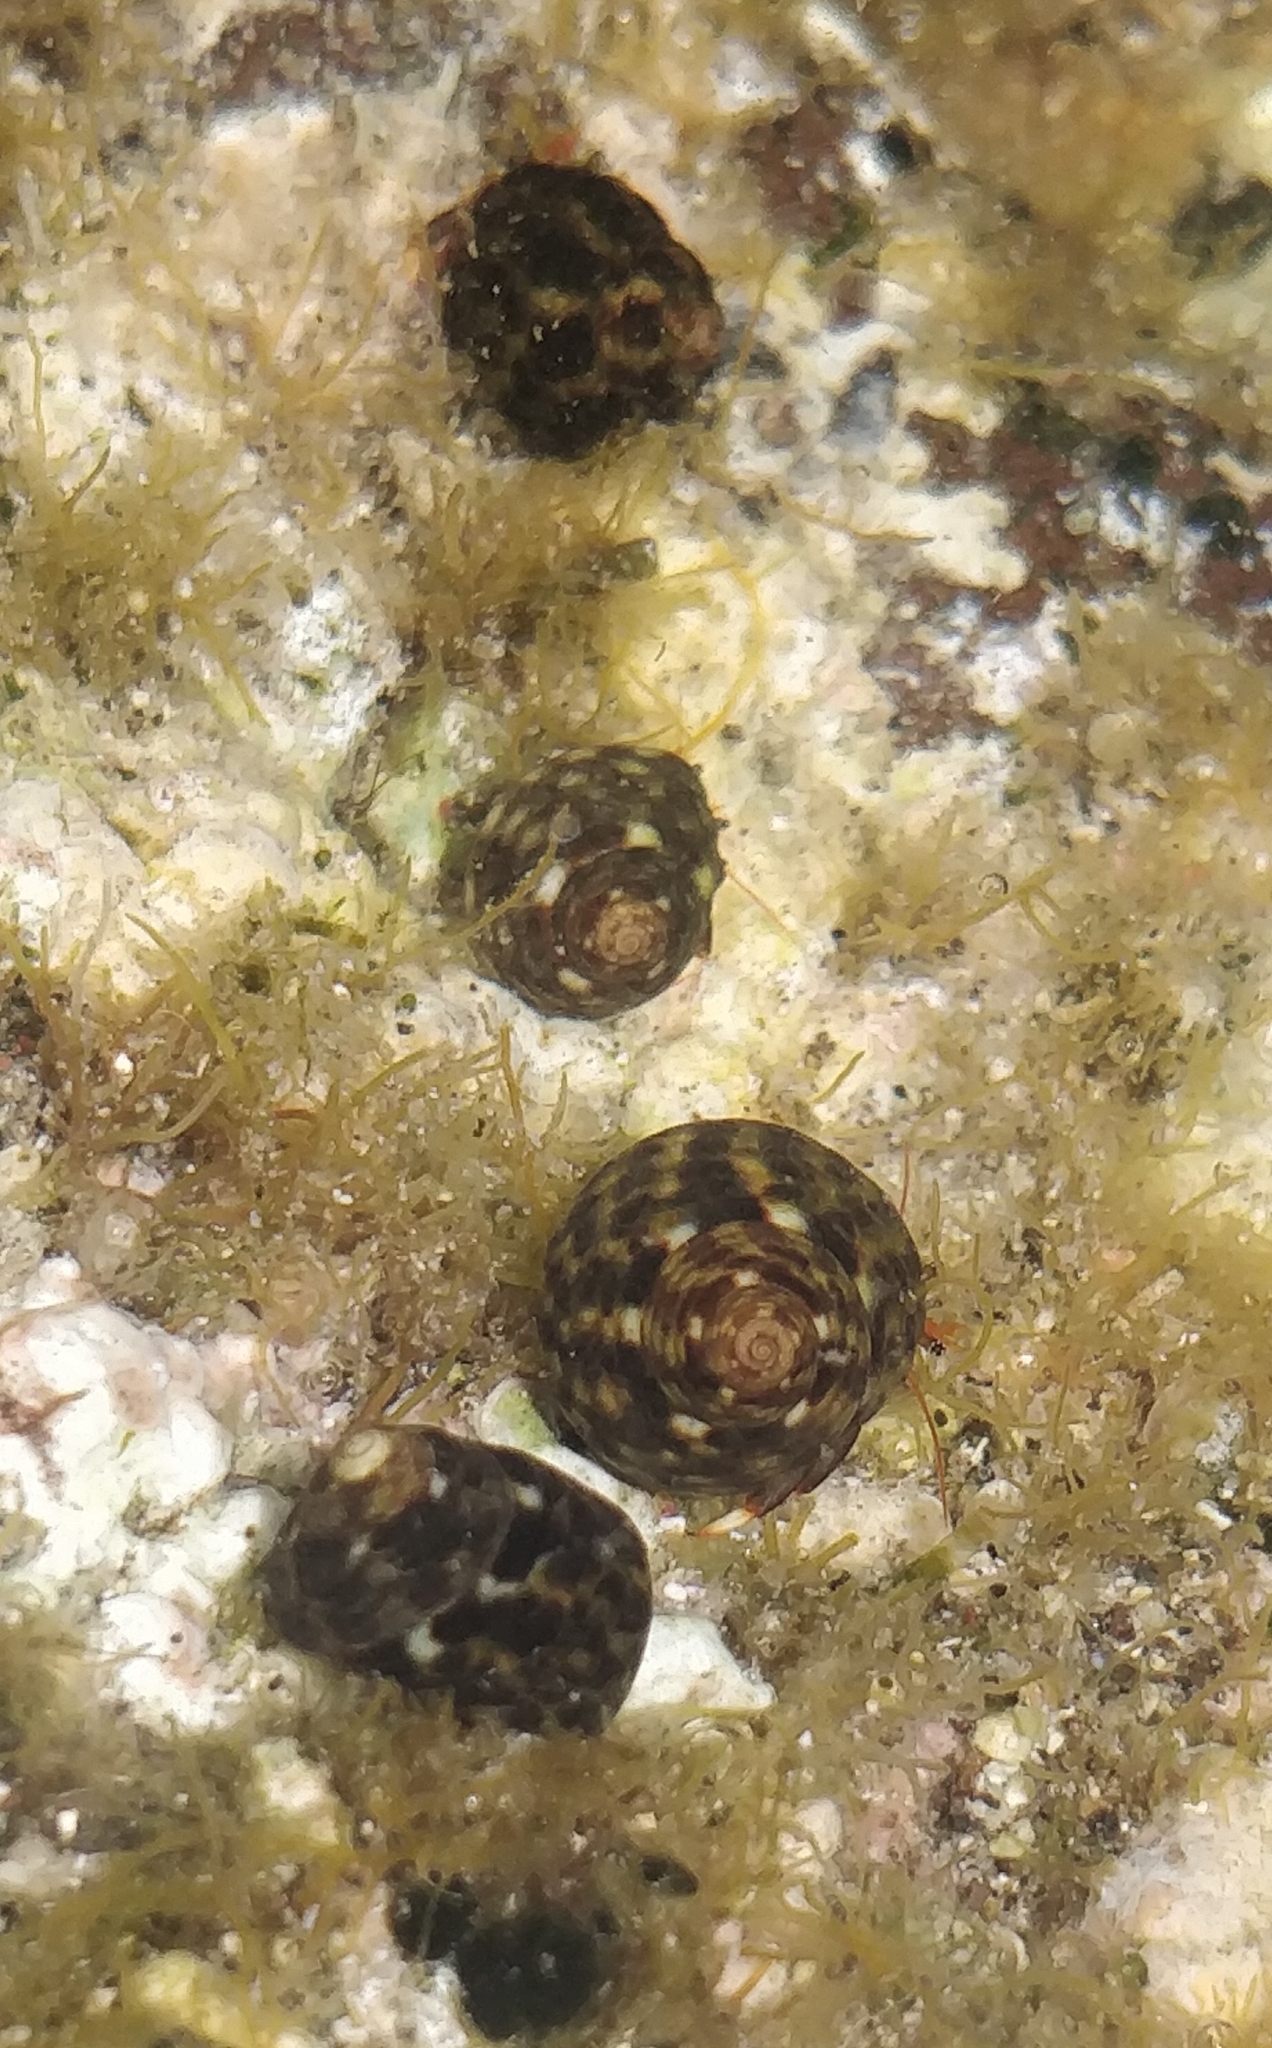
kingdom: Animalia
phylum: Mollusca
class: Gastropoda
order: Trochida
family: Trochidae
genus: Gibbula
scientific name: Gibbula drepanensis
